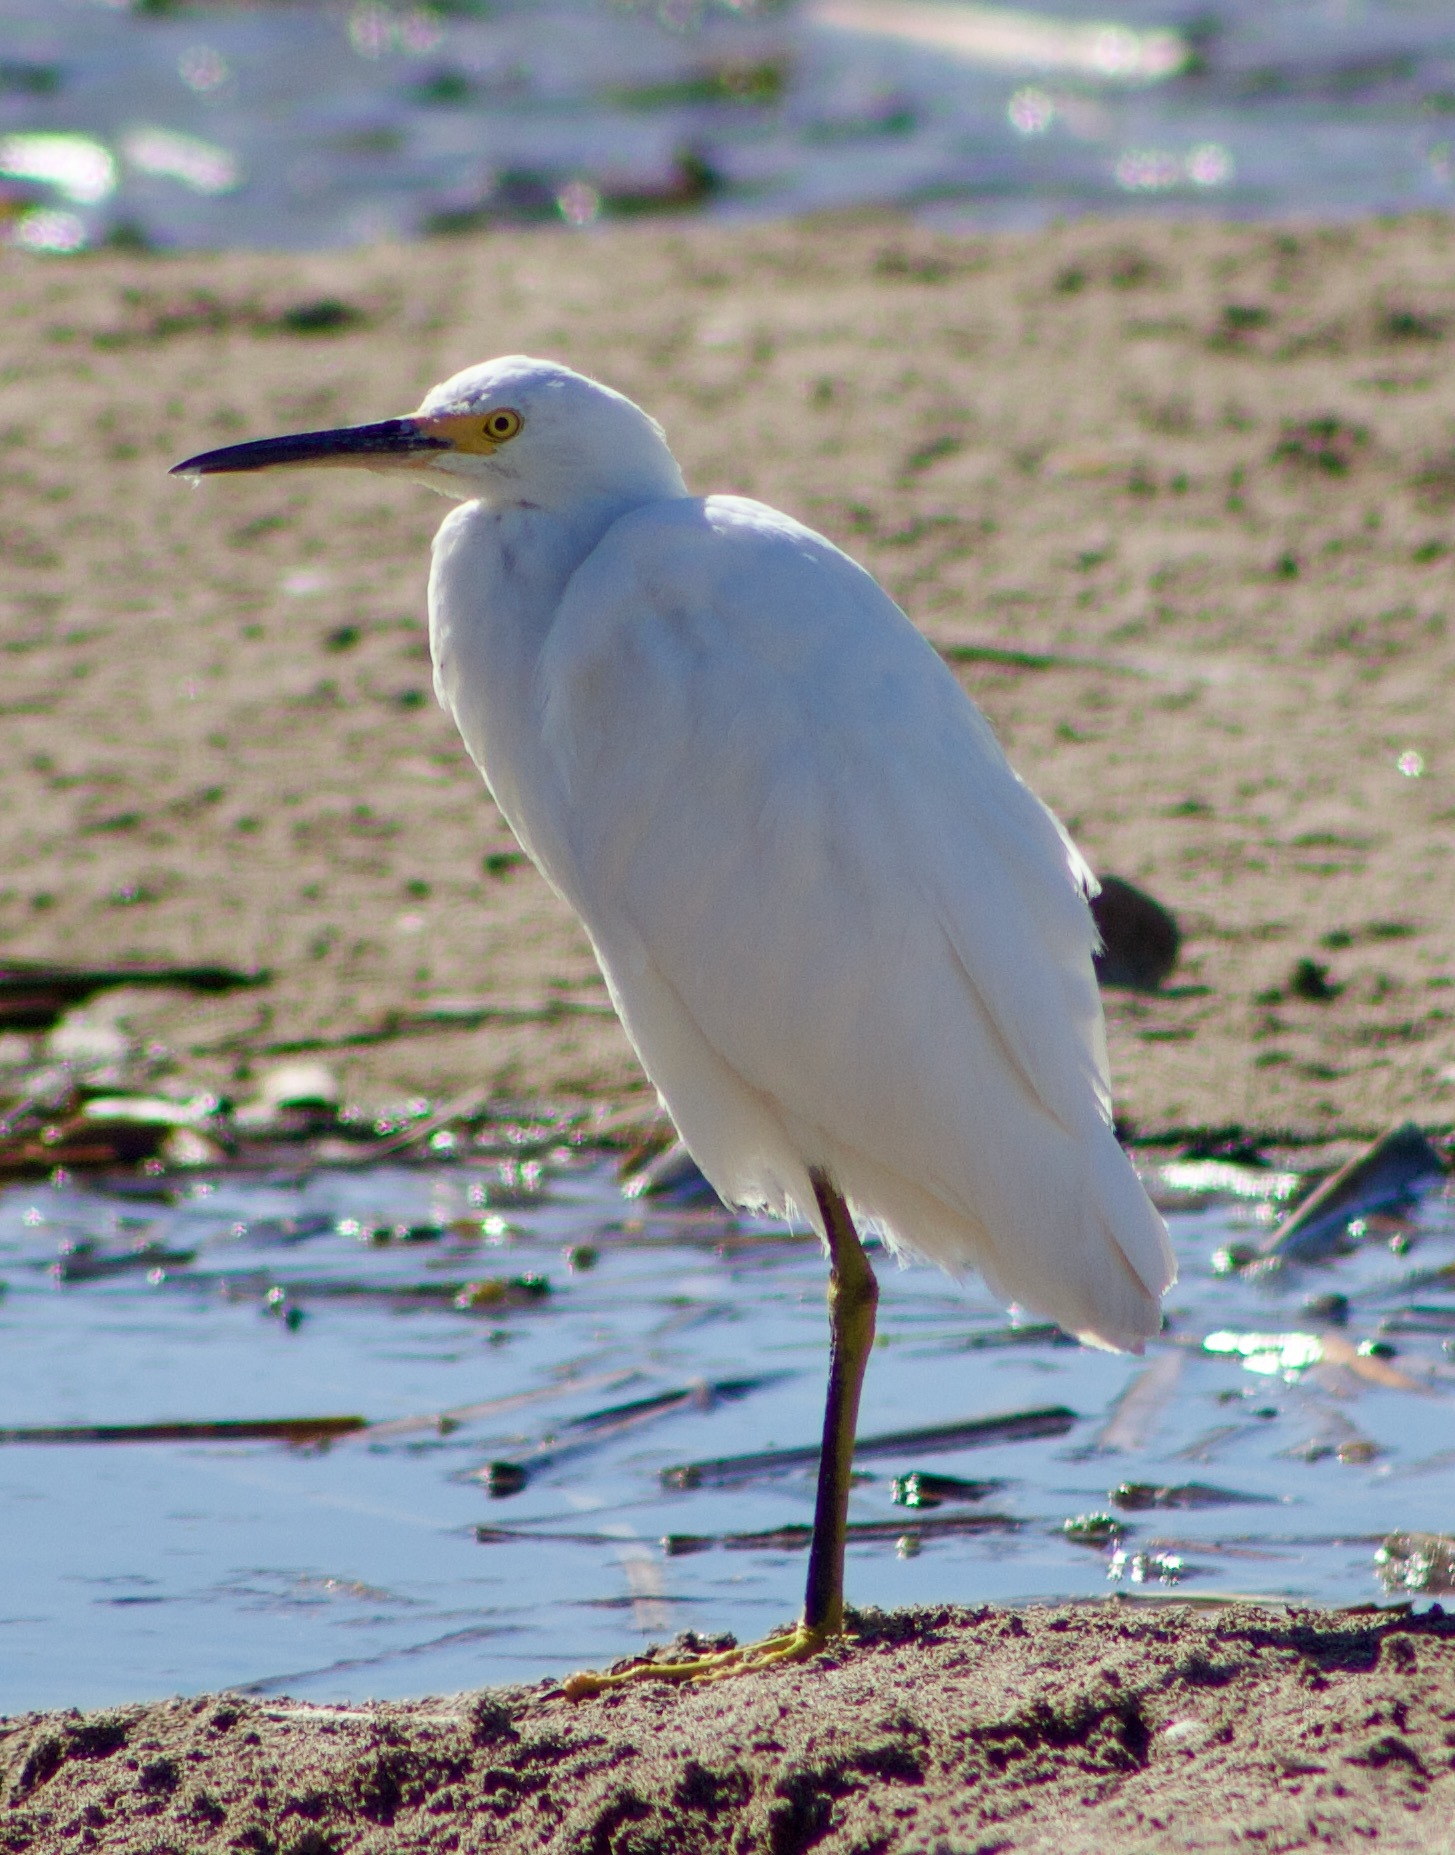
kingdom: Animalia
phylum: Chordata
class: Aves
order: Pelecaniformes
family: Ardeidae
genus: Egretta
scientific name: Egretta thula
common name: Snowy egret
